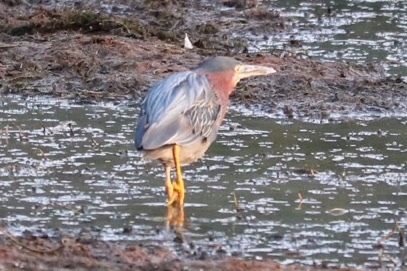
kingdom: Animalia
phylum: Chordata
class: Aves
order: Pelecaniformes
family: Ardeidae
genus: Butorides
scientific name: Butorides virescens
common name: Green heron
